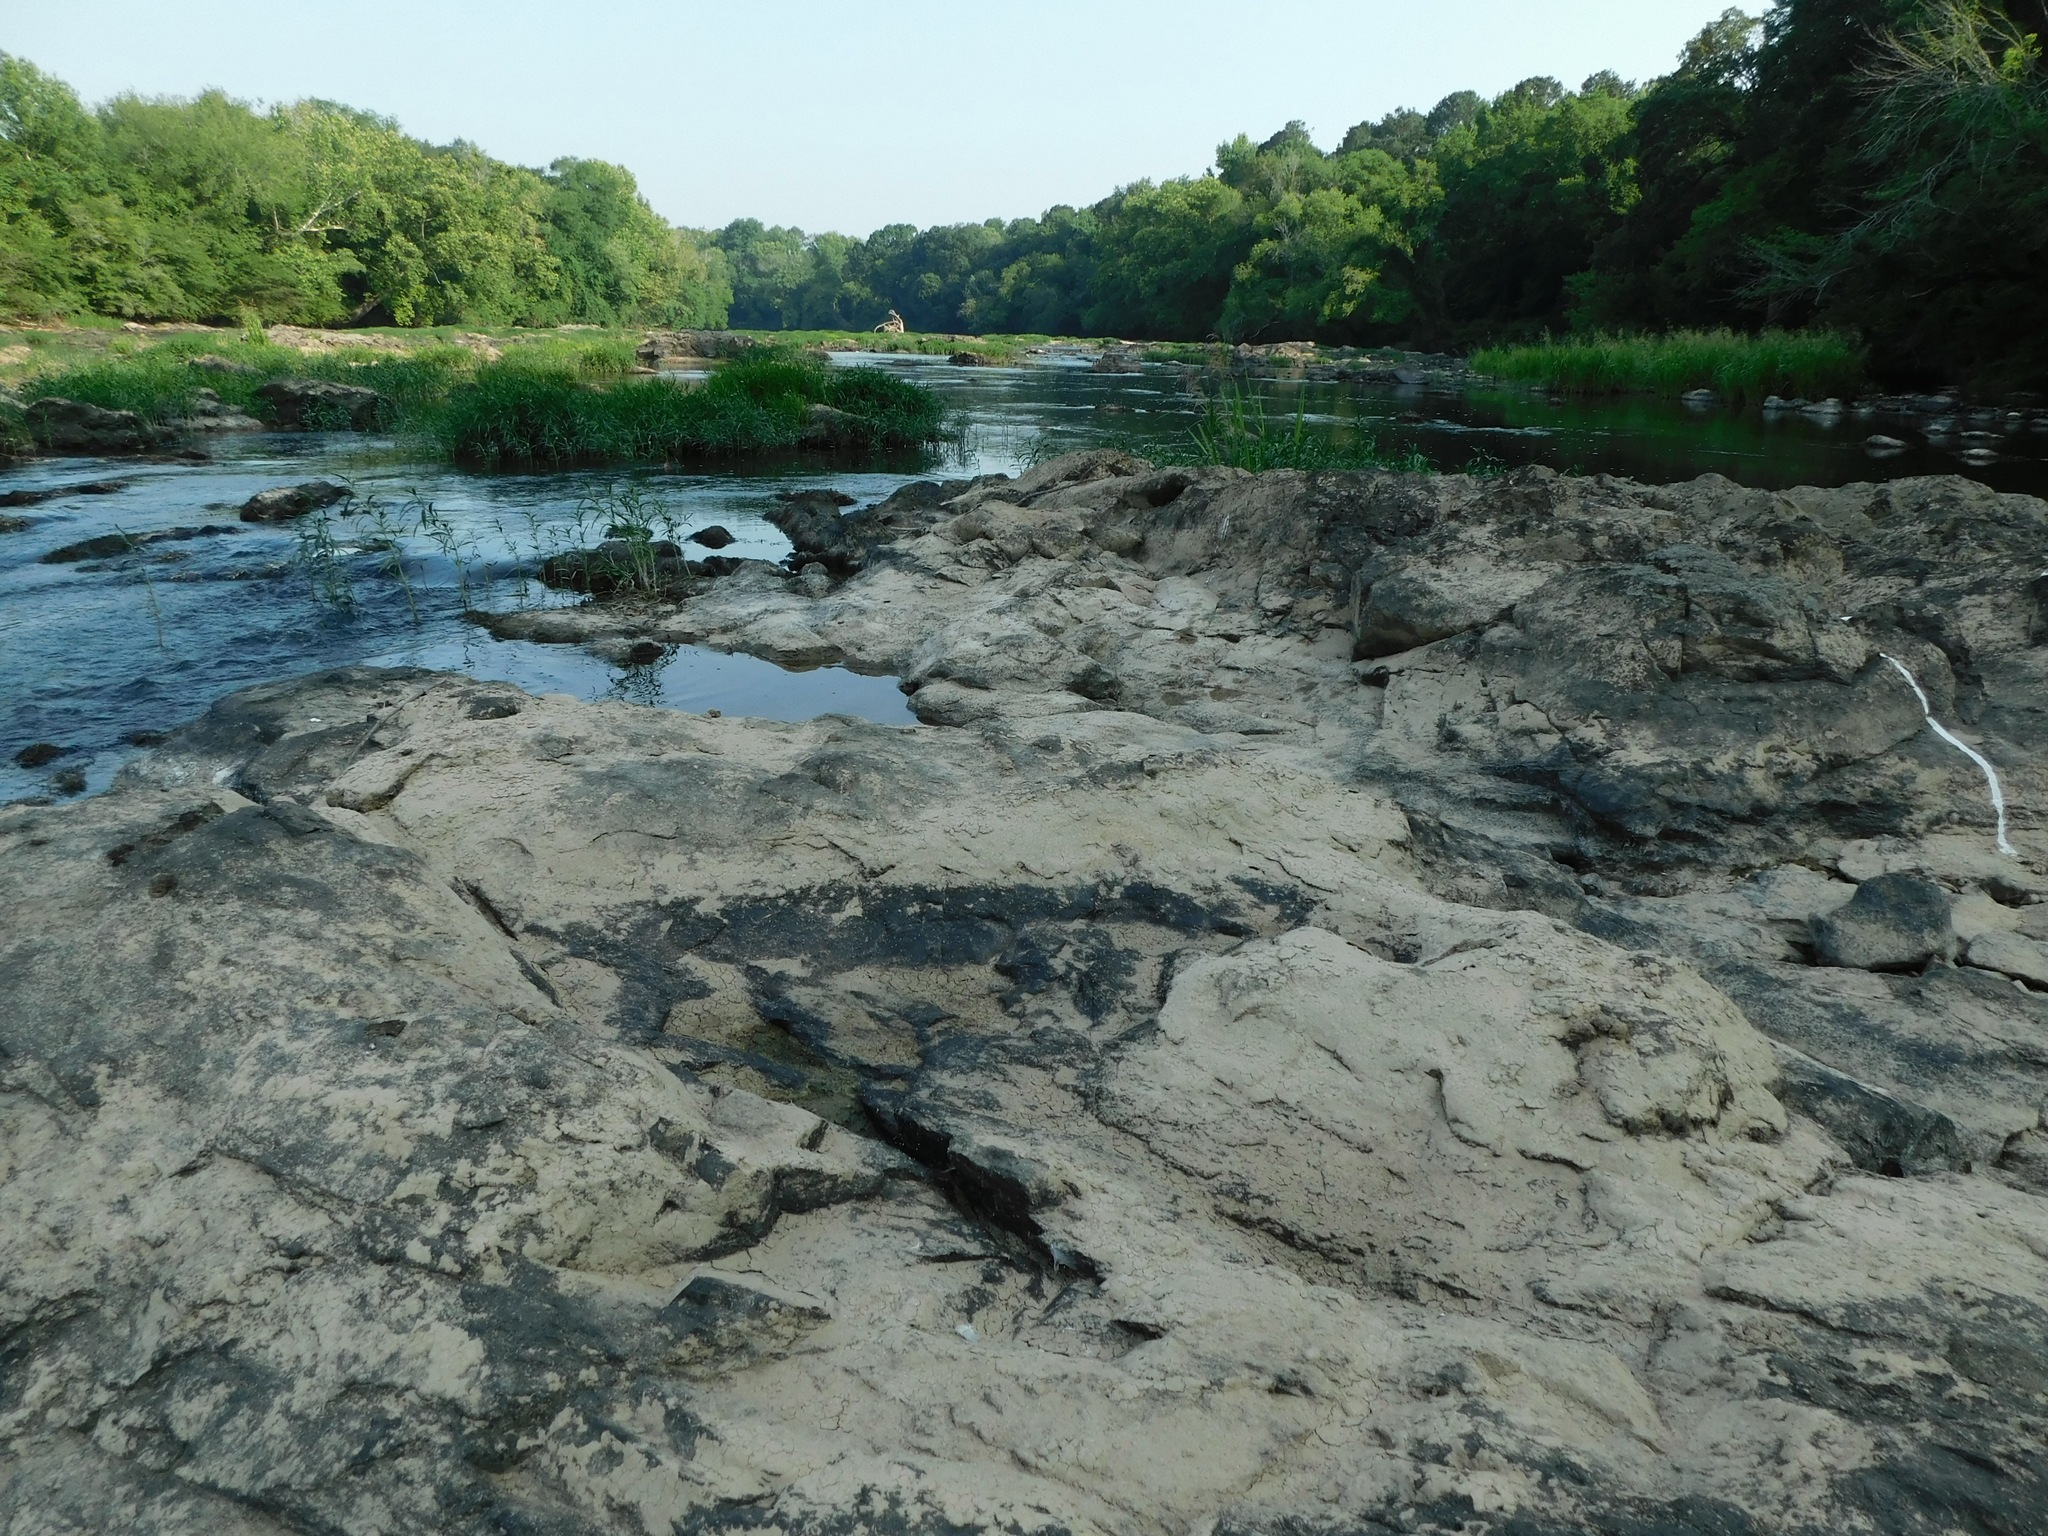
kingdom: Fungi
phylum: Ascomycota
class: Lecanoromycetes
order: Caliciales
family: Physciaceae
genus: Rinodina
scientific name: Rinodina milvina
